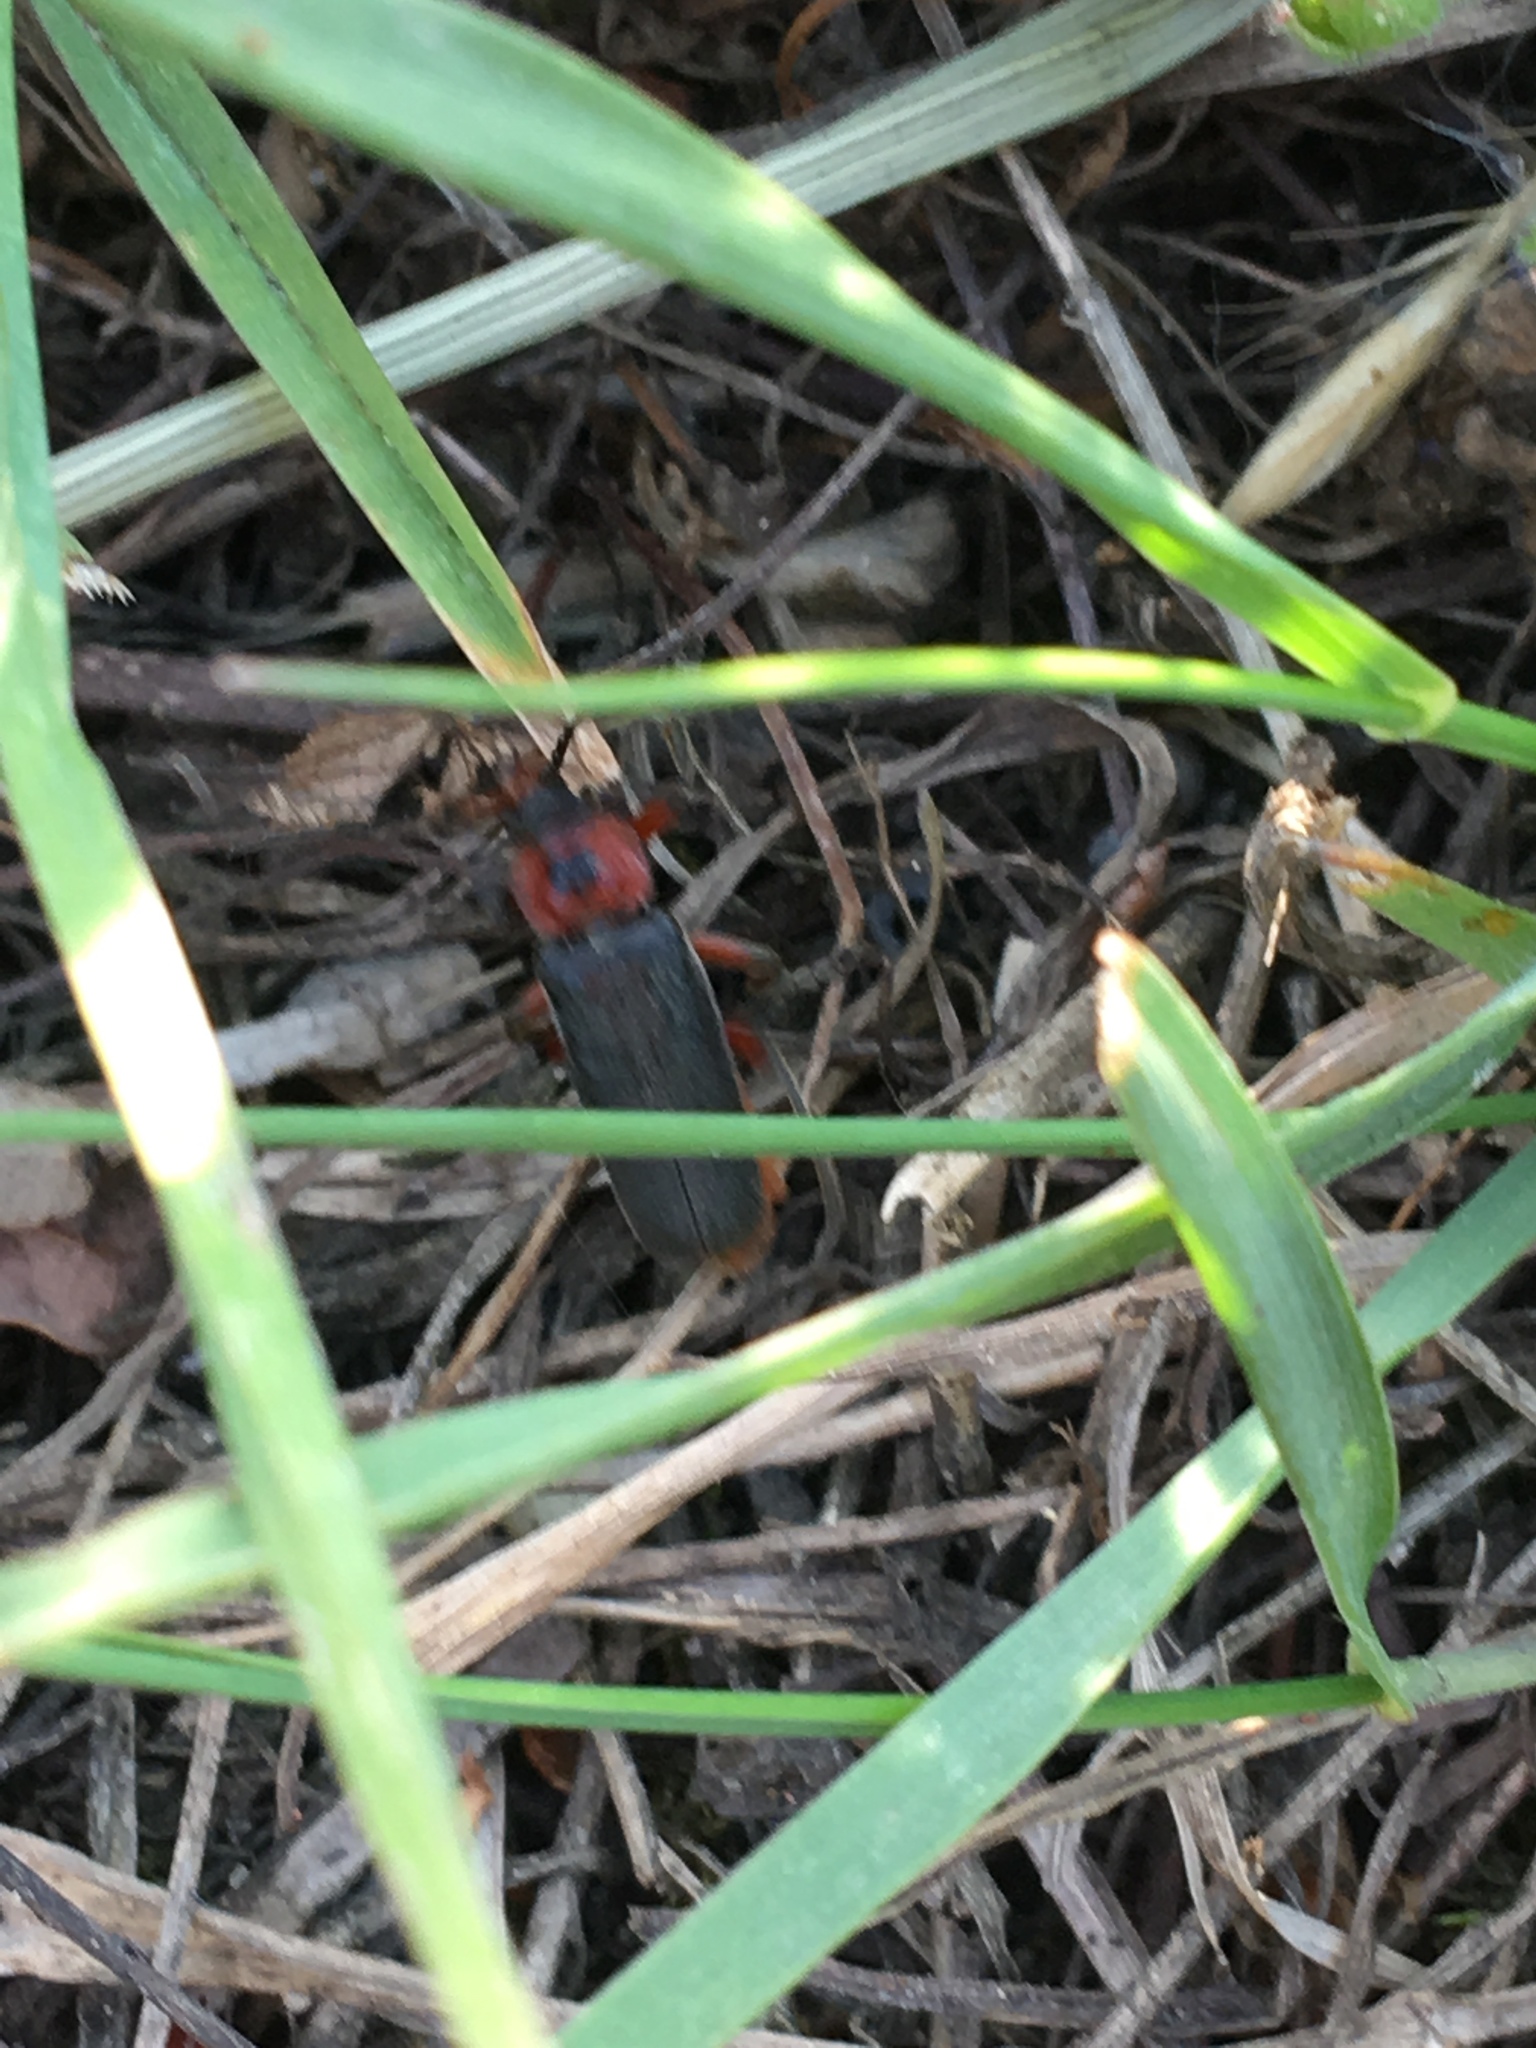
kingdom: Animalia
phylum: Arthropoda
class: Insecta
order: Coleoptera
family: Cantharidae
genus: Cantharis
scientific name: Cantharis rustica
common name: Soldier beetle
